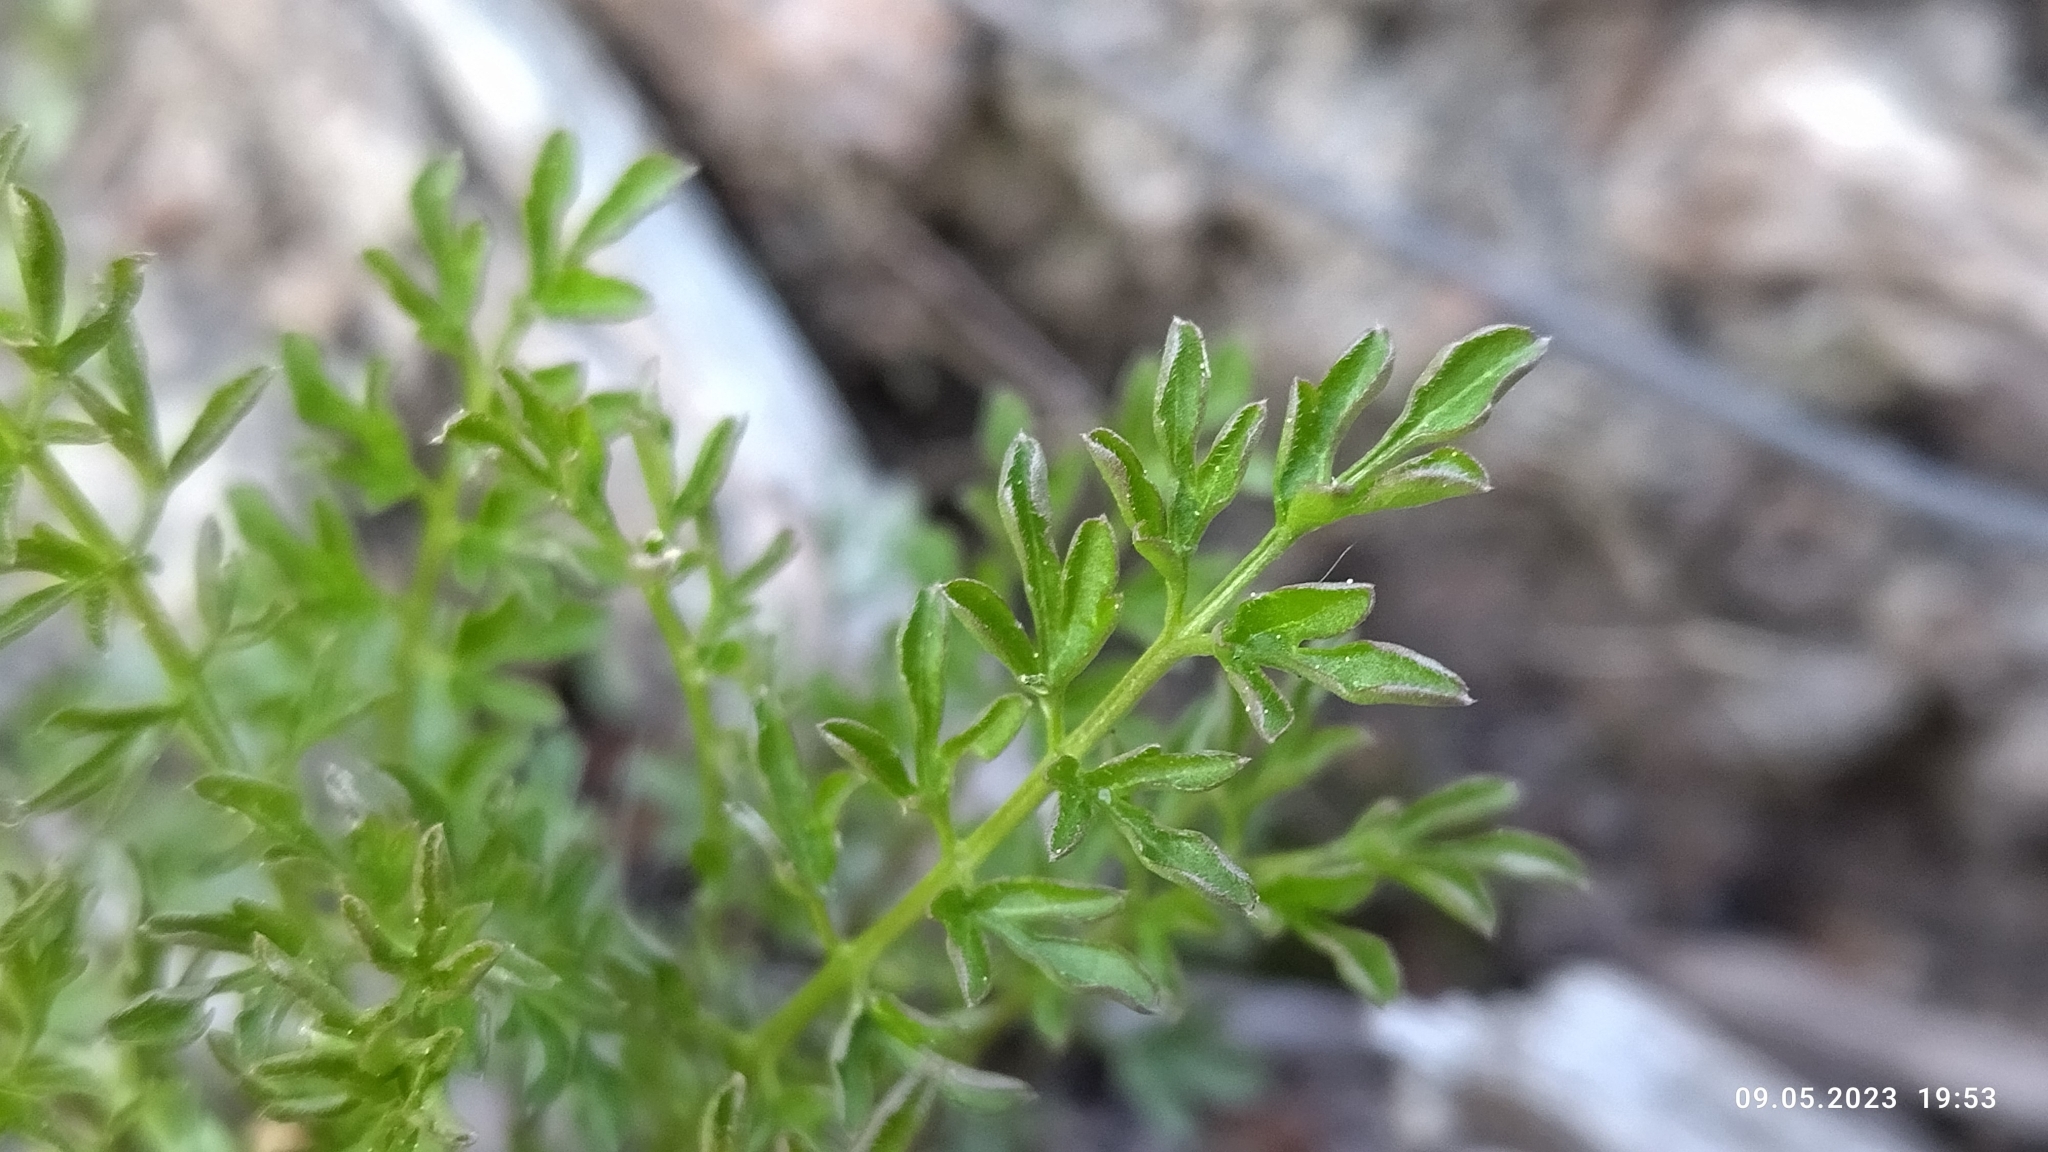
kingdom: Plantae
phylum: Tracheophyta
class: Magnoliopsida
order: Brassicales
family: Brassicaceae
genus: Cardamine
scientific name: Cardamine impatiens
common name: Narrow-leaved bitter-cress
